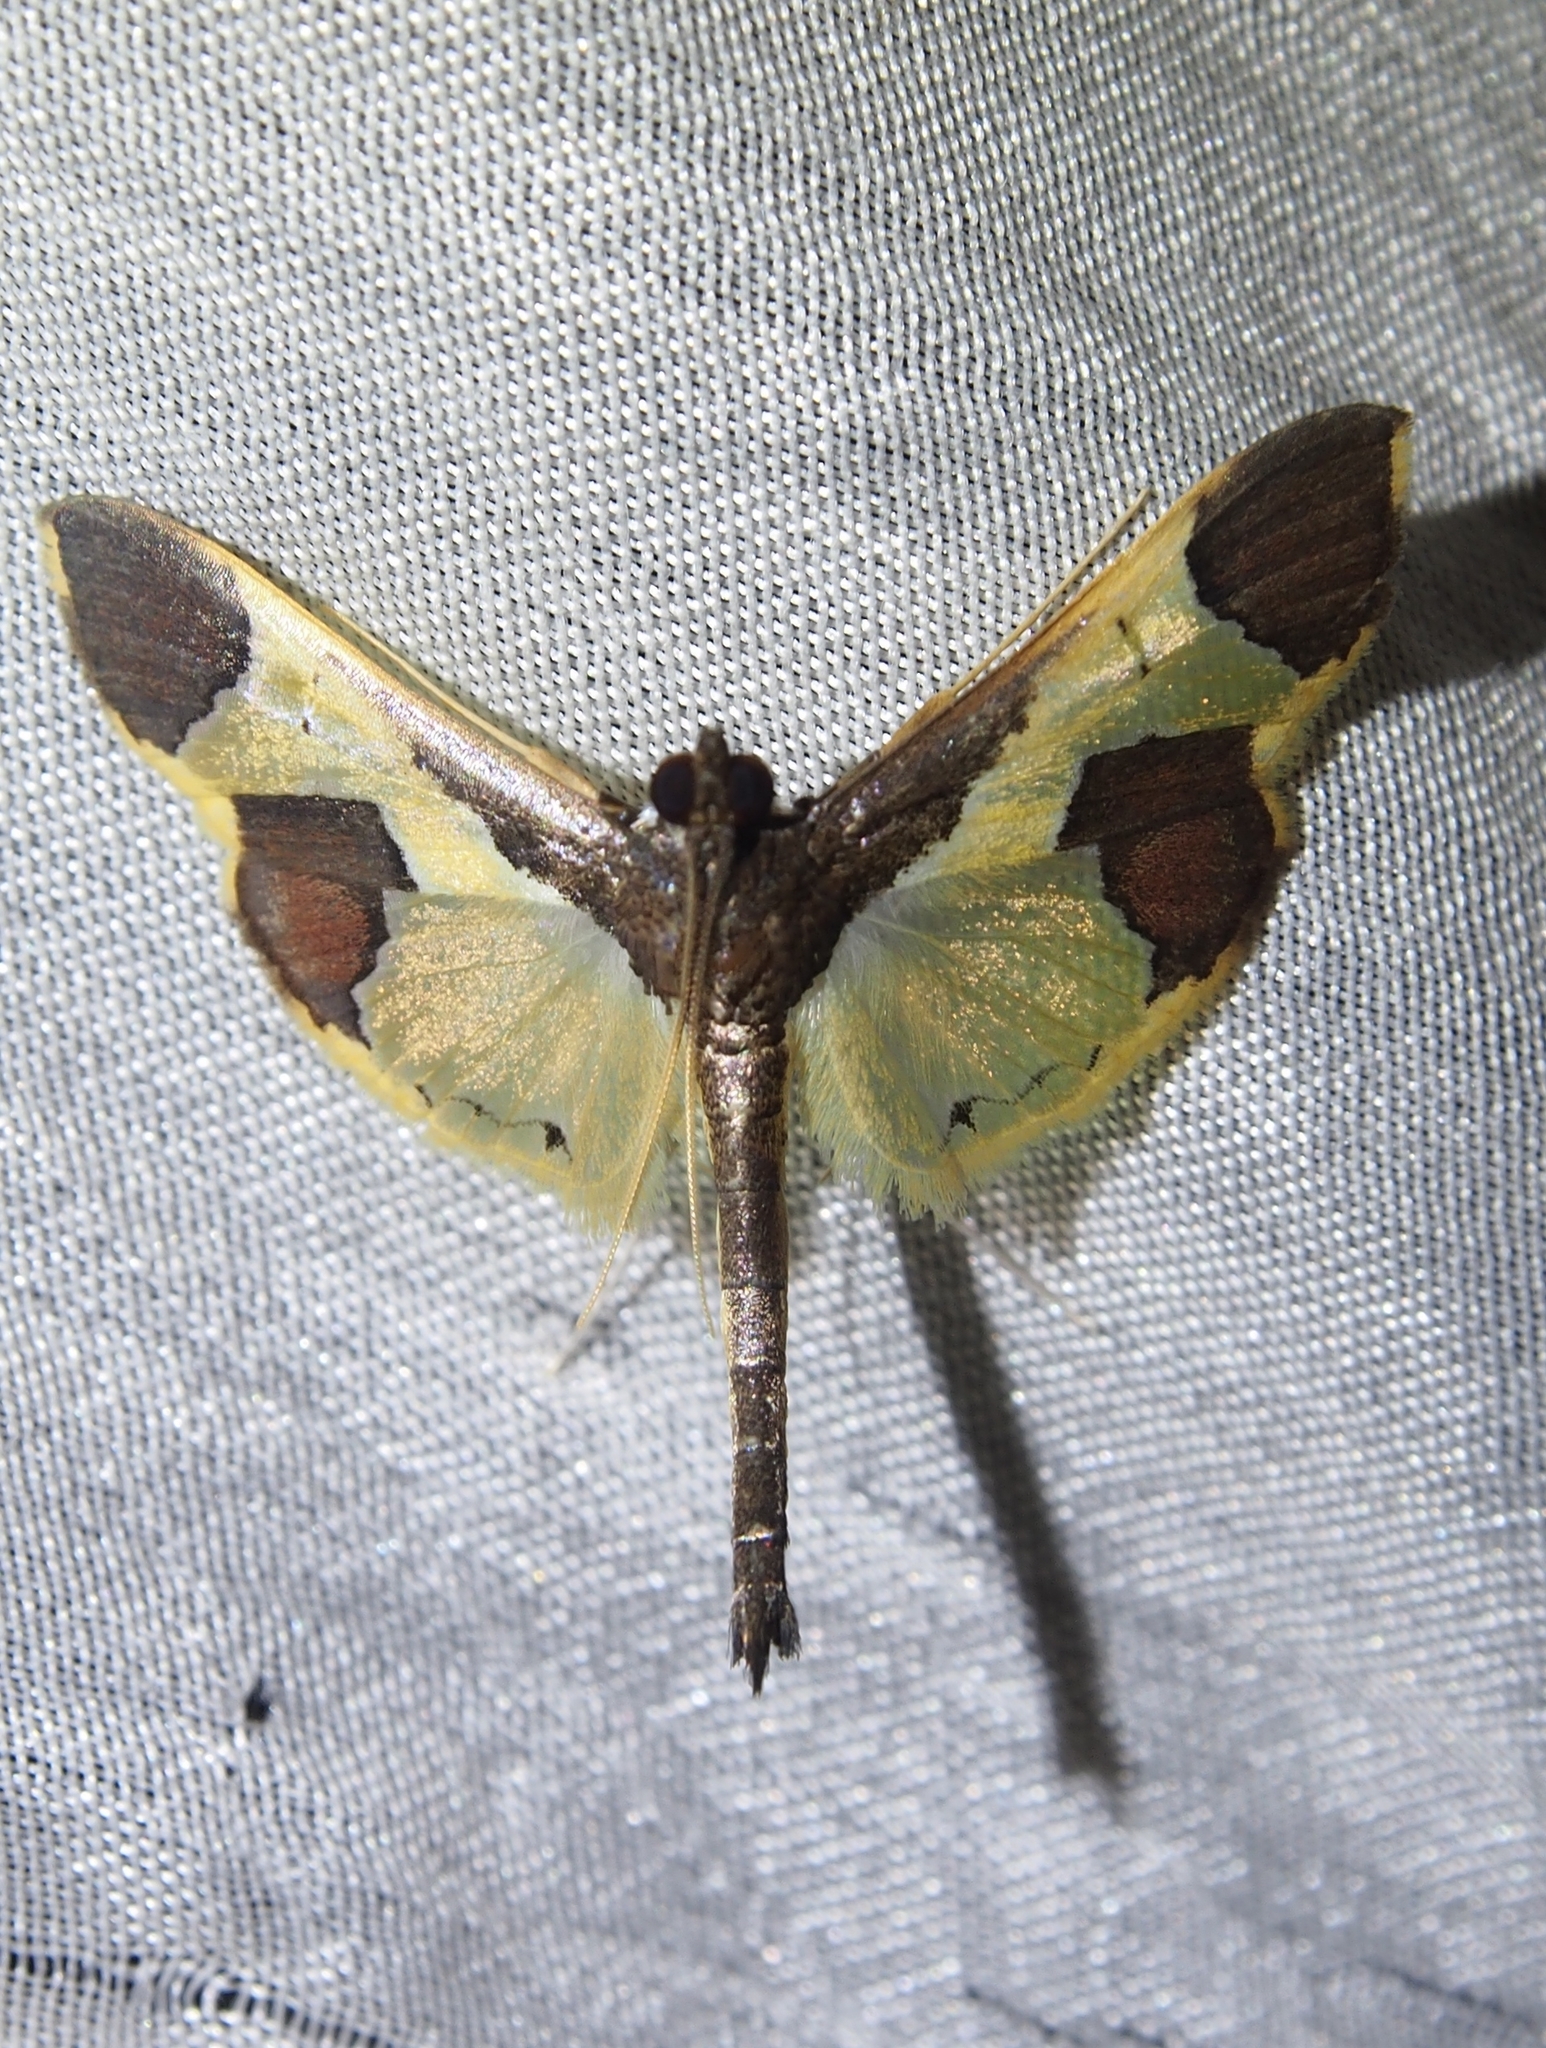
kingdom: Animalia
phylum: Arthropoda
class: Insecta
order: Lepidoptera
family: Crambidae
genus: Syllepis
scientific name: Syllepis marialis
